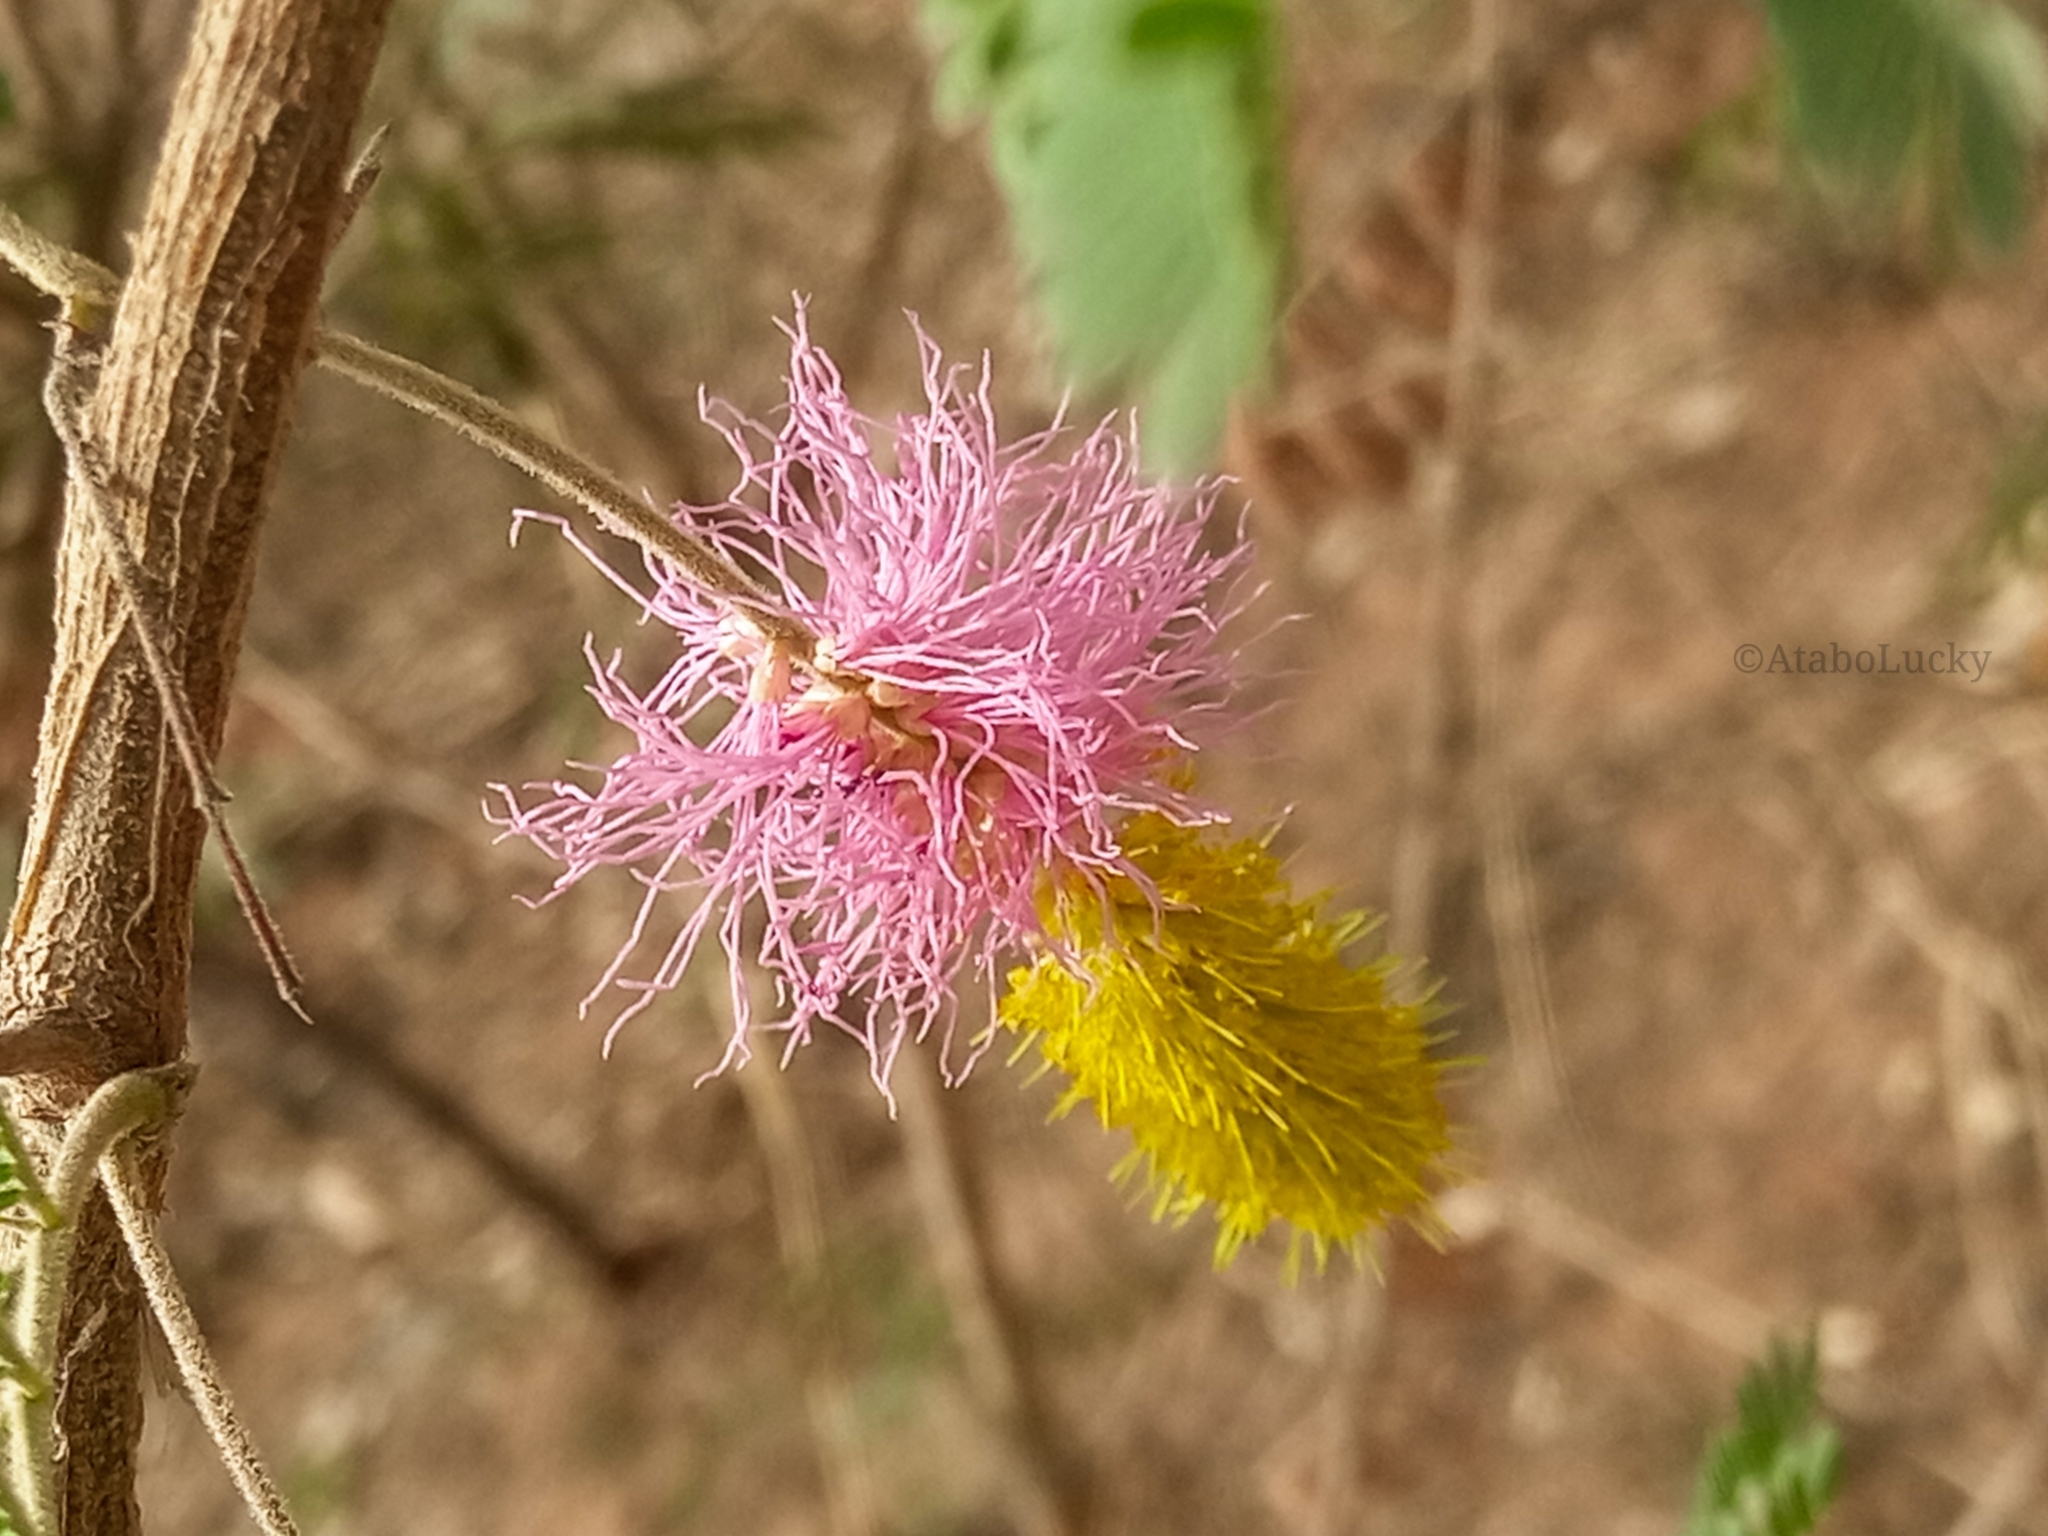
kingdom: Plantae
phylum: Tracheophyta
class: Magnoliopsida
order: Fabales
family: Fabaceae
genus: Dichrostachys
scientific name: Dichrostachys cinerea
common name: Sicklebush
